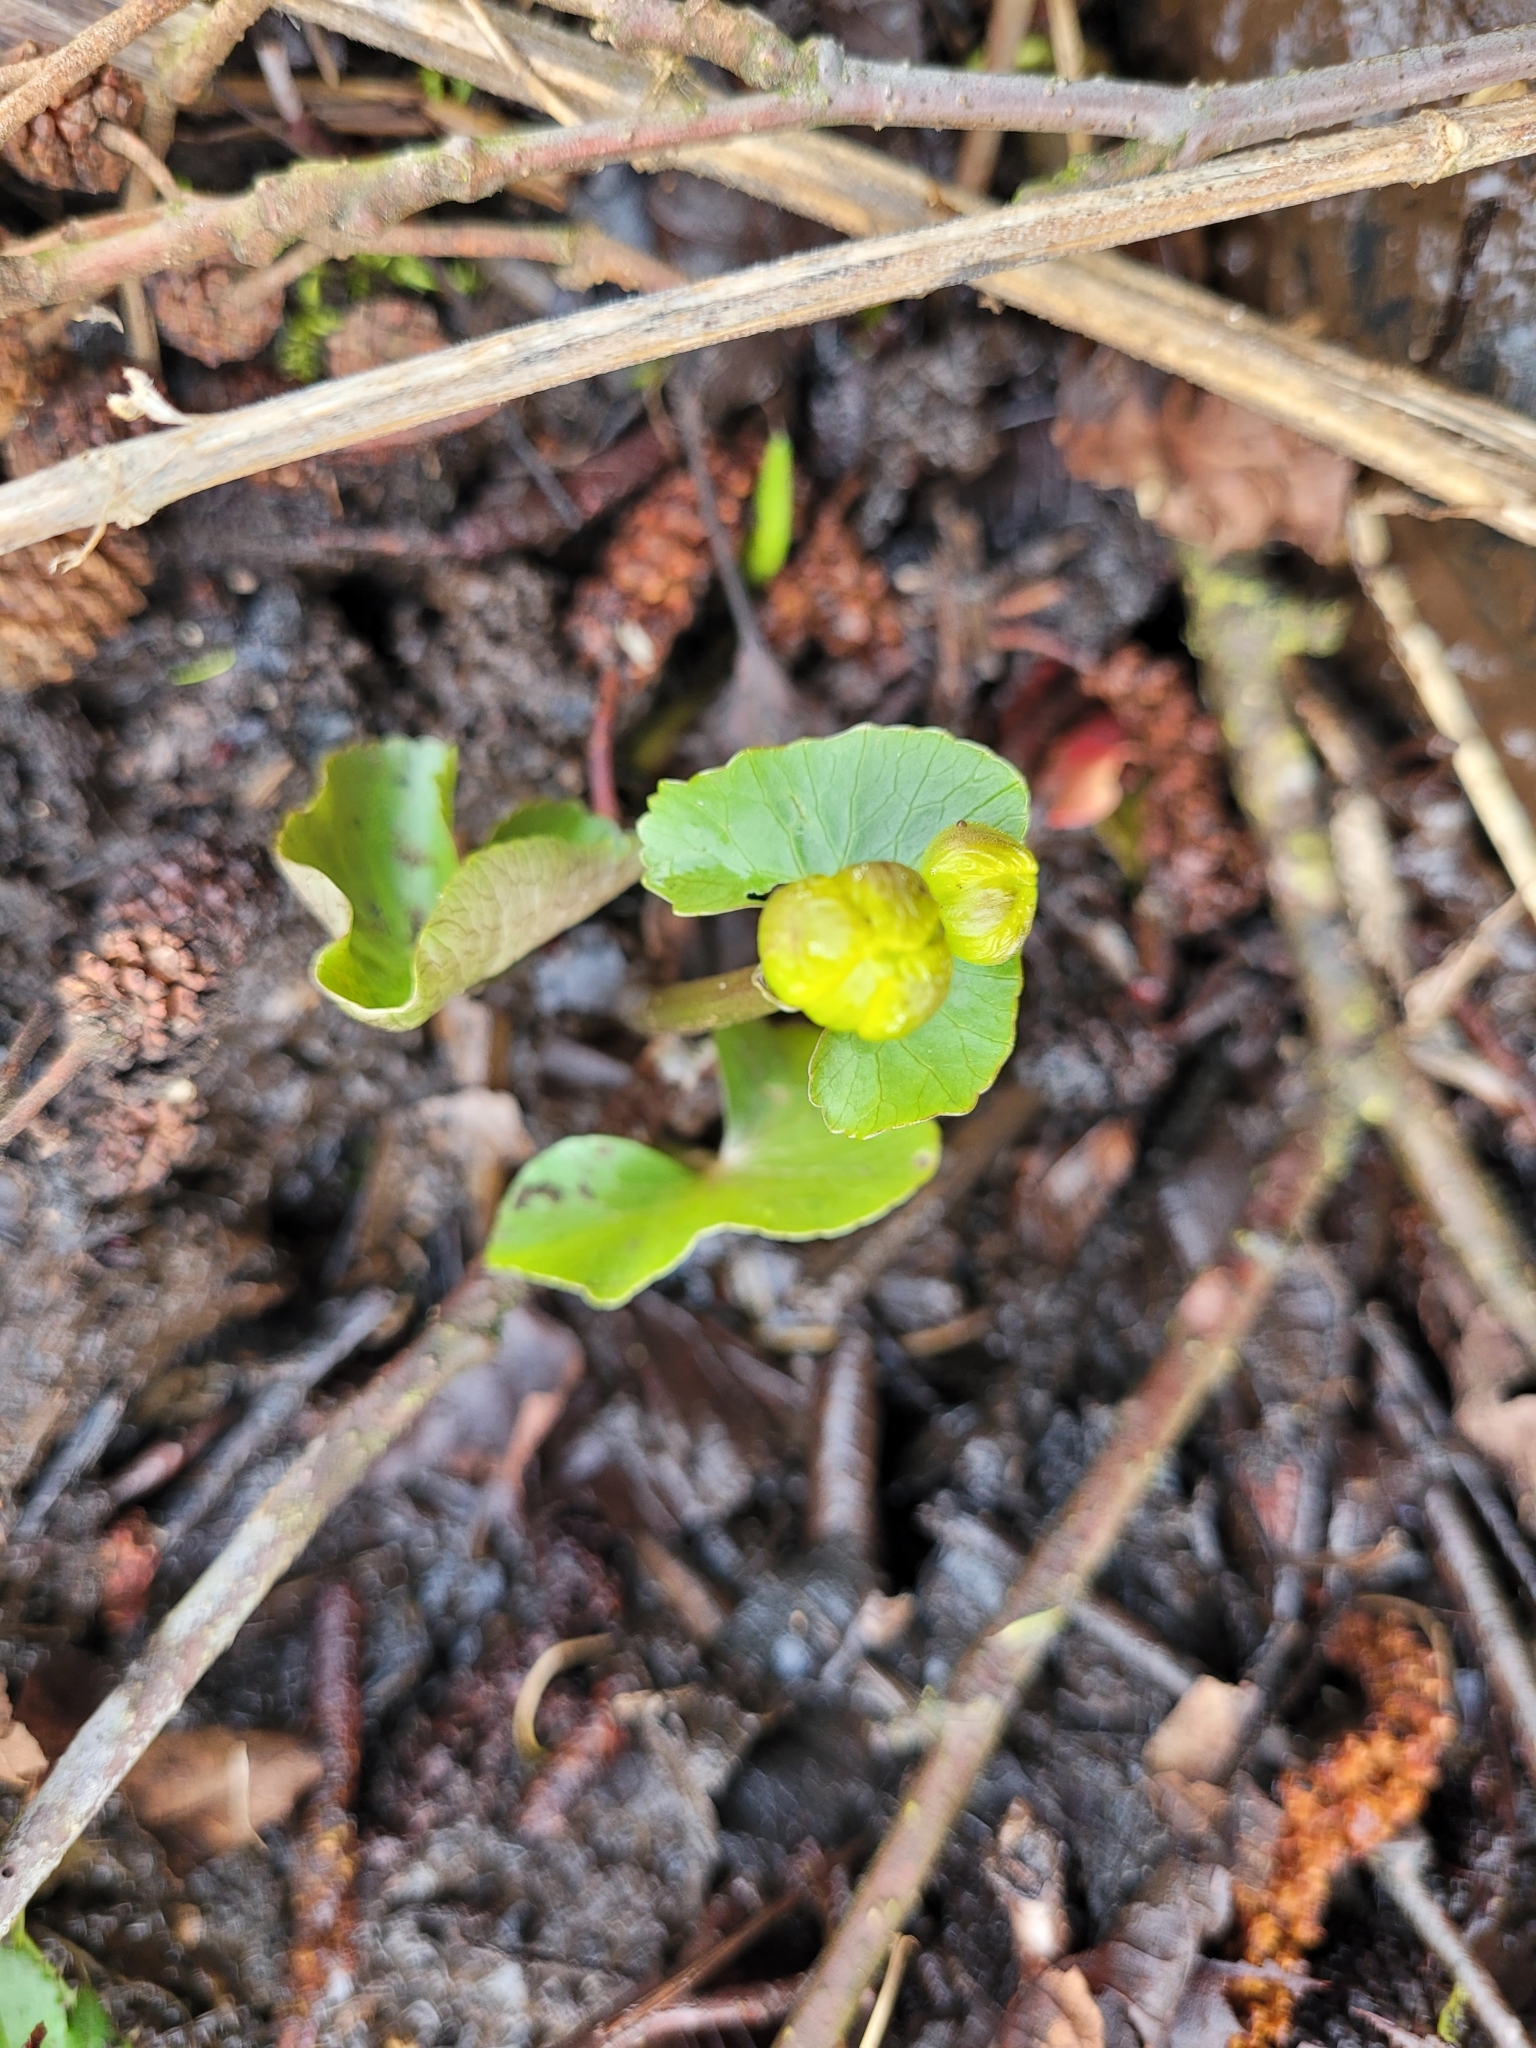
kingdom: Plantae
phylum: Tracheophyta
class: Magnoliopsida
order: Ranunculales
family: Ranunculaceae
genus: Caltha
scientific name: Caltha palustris
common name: Marsh marigold
